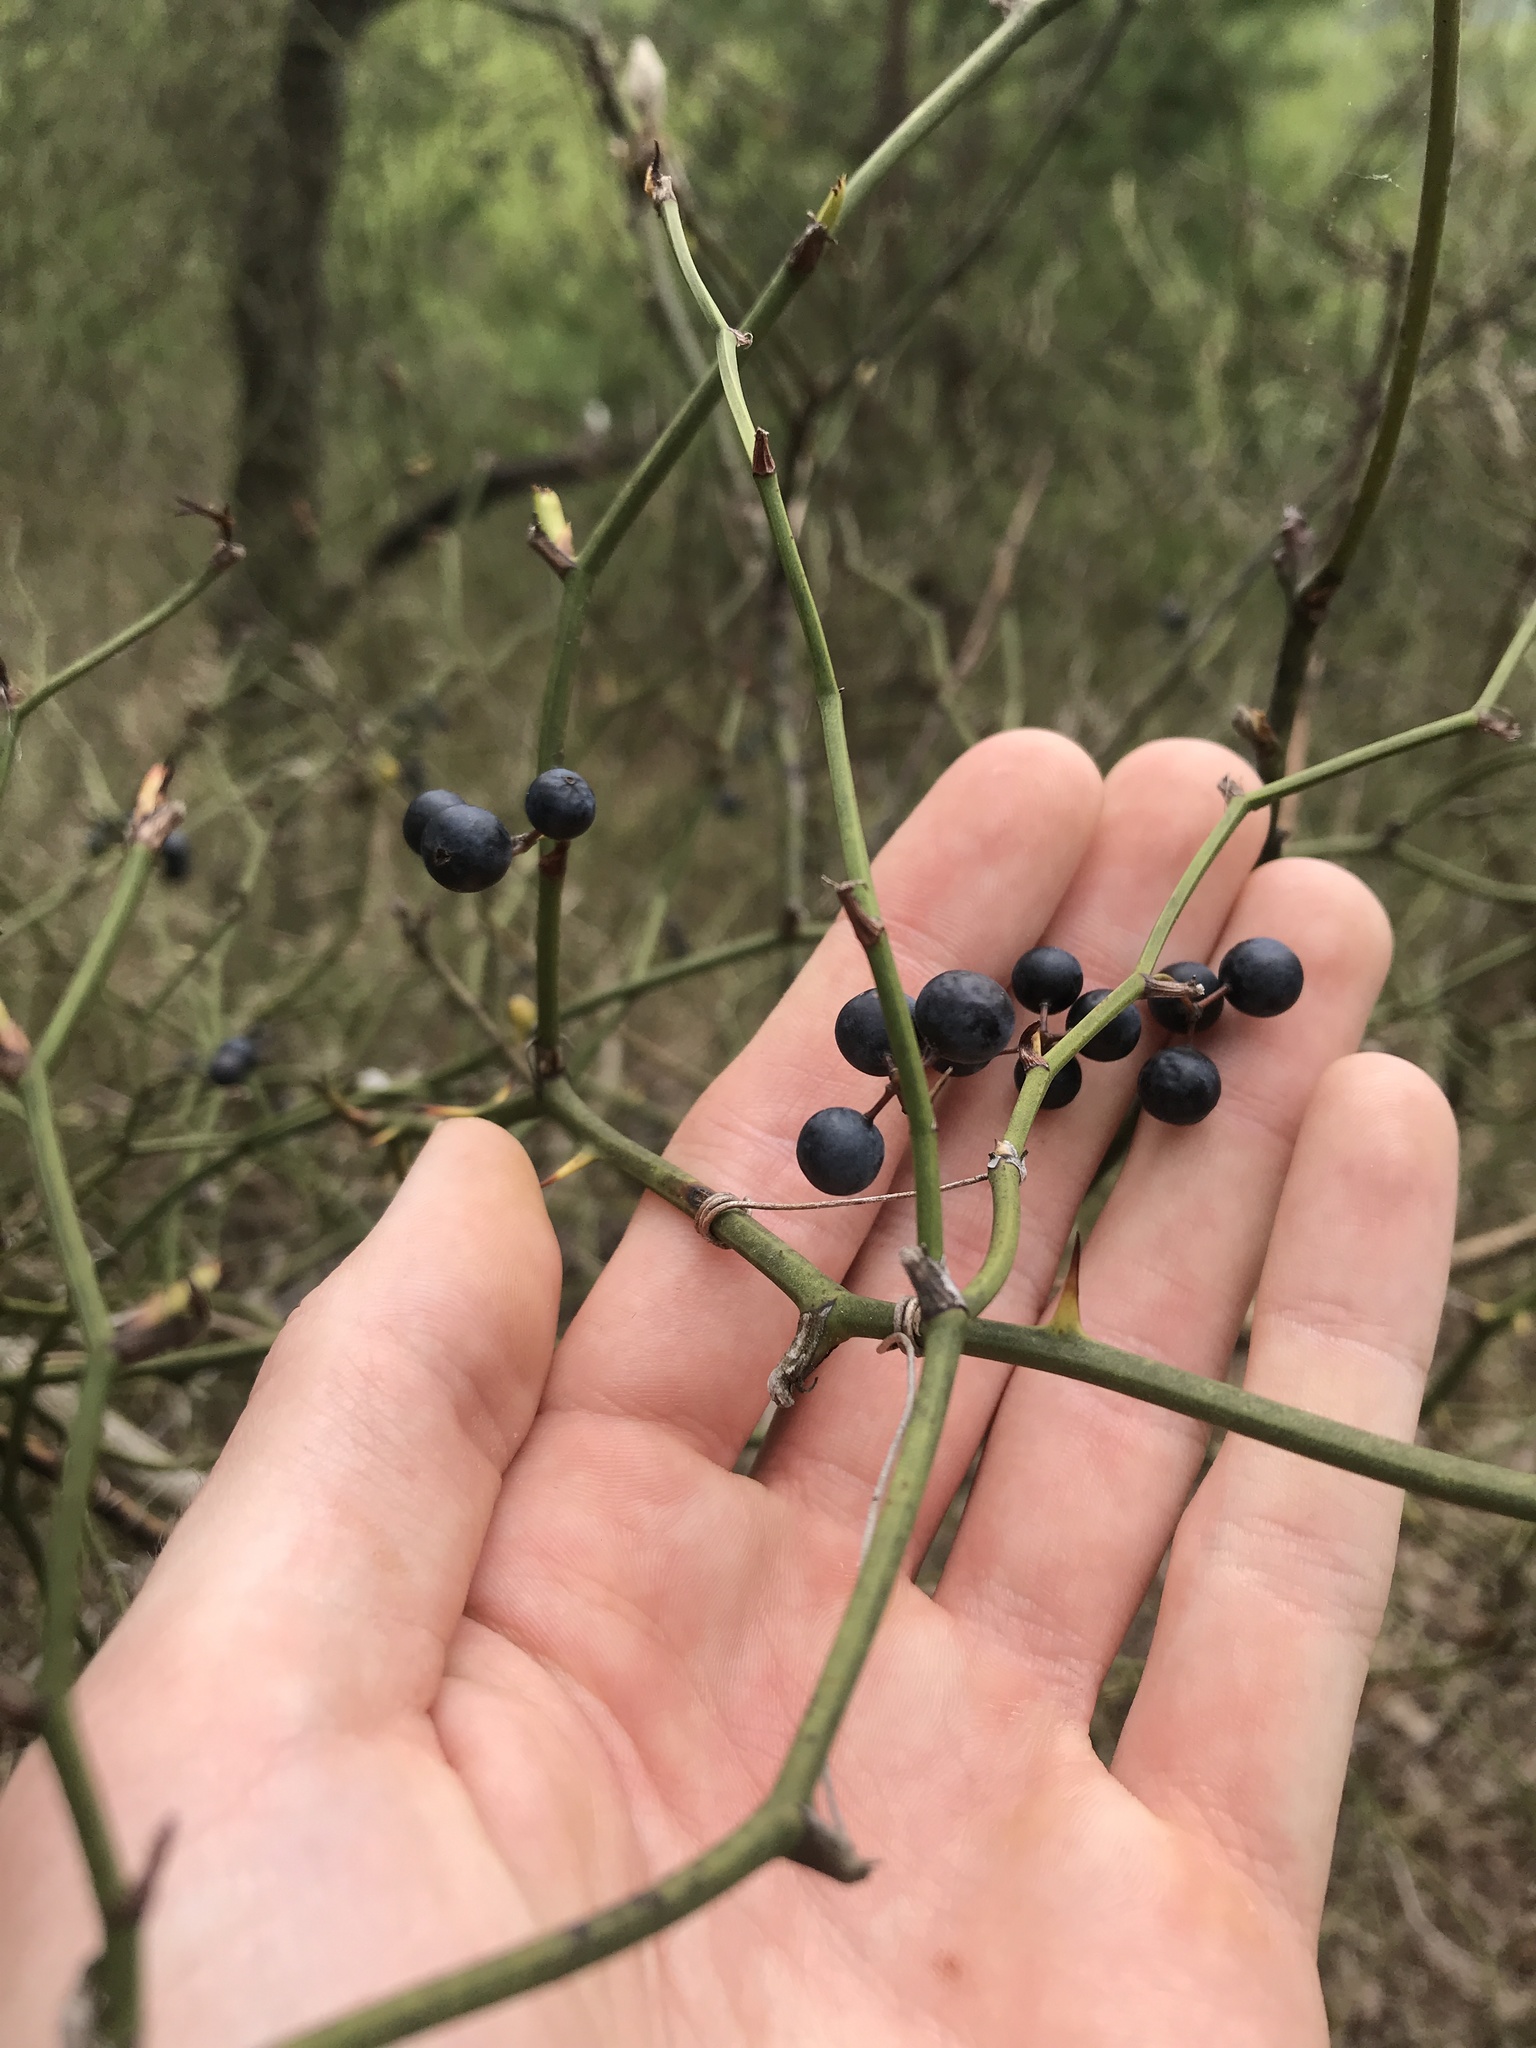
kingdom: Plantae
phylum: Tracheophyta
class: Liliopsida
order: Liliales
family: Smilacaceae
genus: Smilax
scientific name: Smilax rotundifolia
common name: Bullbriar
